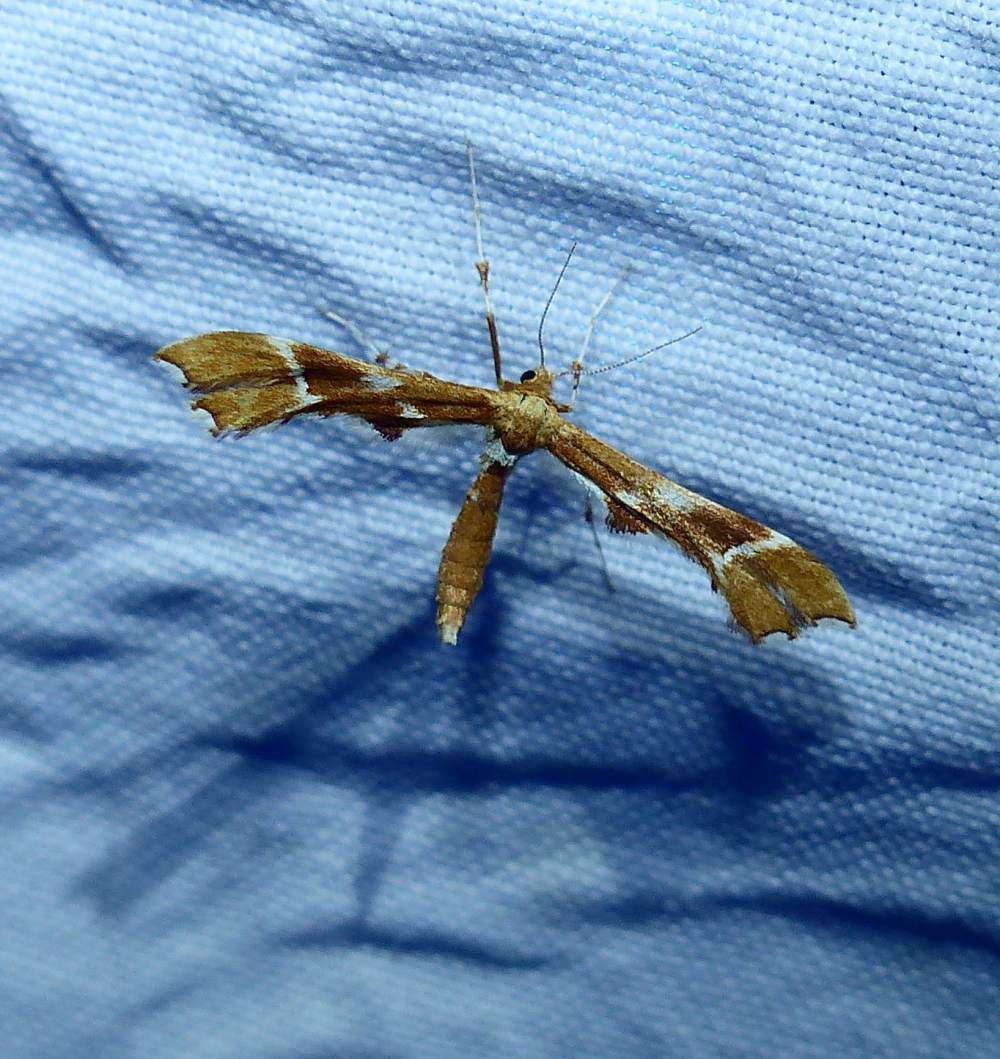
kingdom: Animalia
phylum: Arthropoda
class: Insecta
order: Lepidoptera
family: Pterophoridae
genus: Cnaemidophorus
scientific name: Cnaemidophorus rhododactyla
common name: Rose plume
